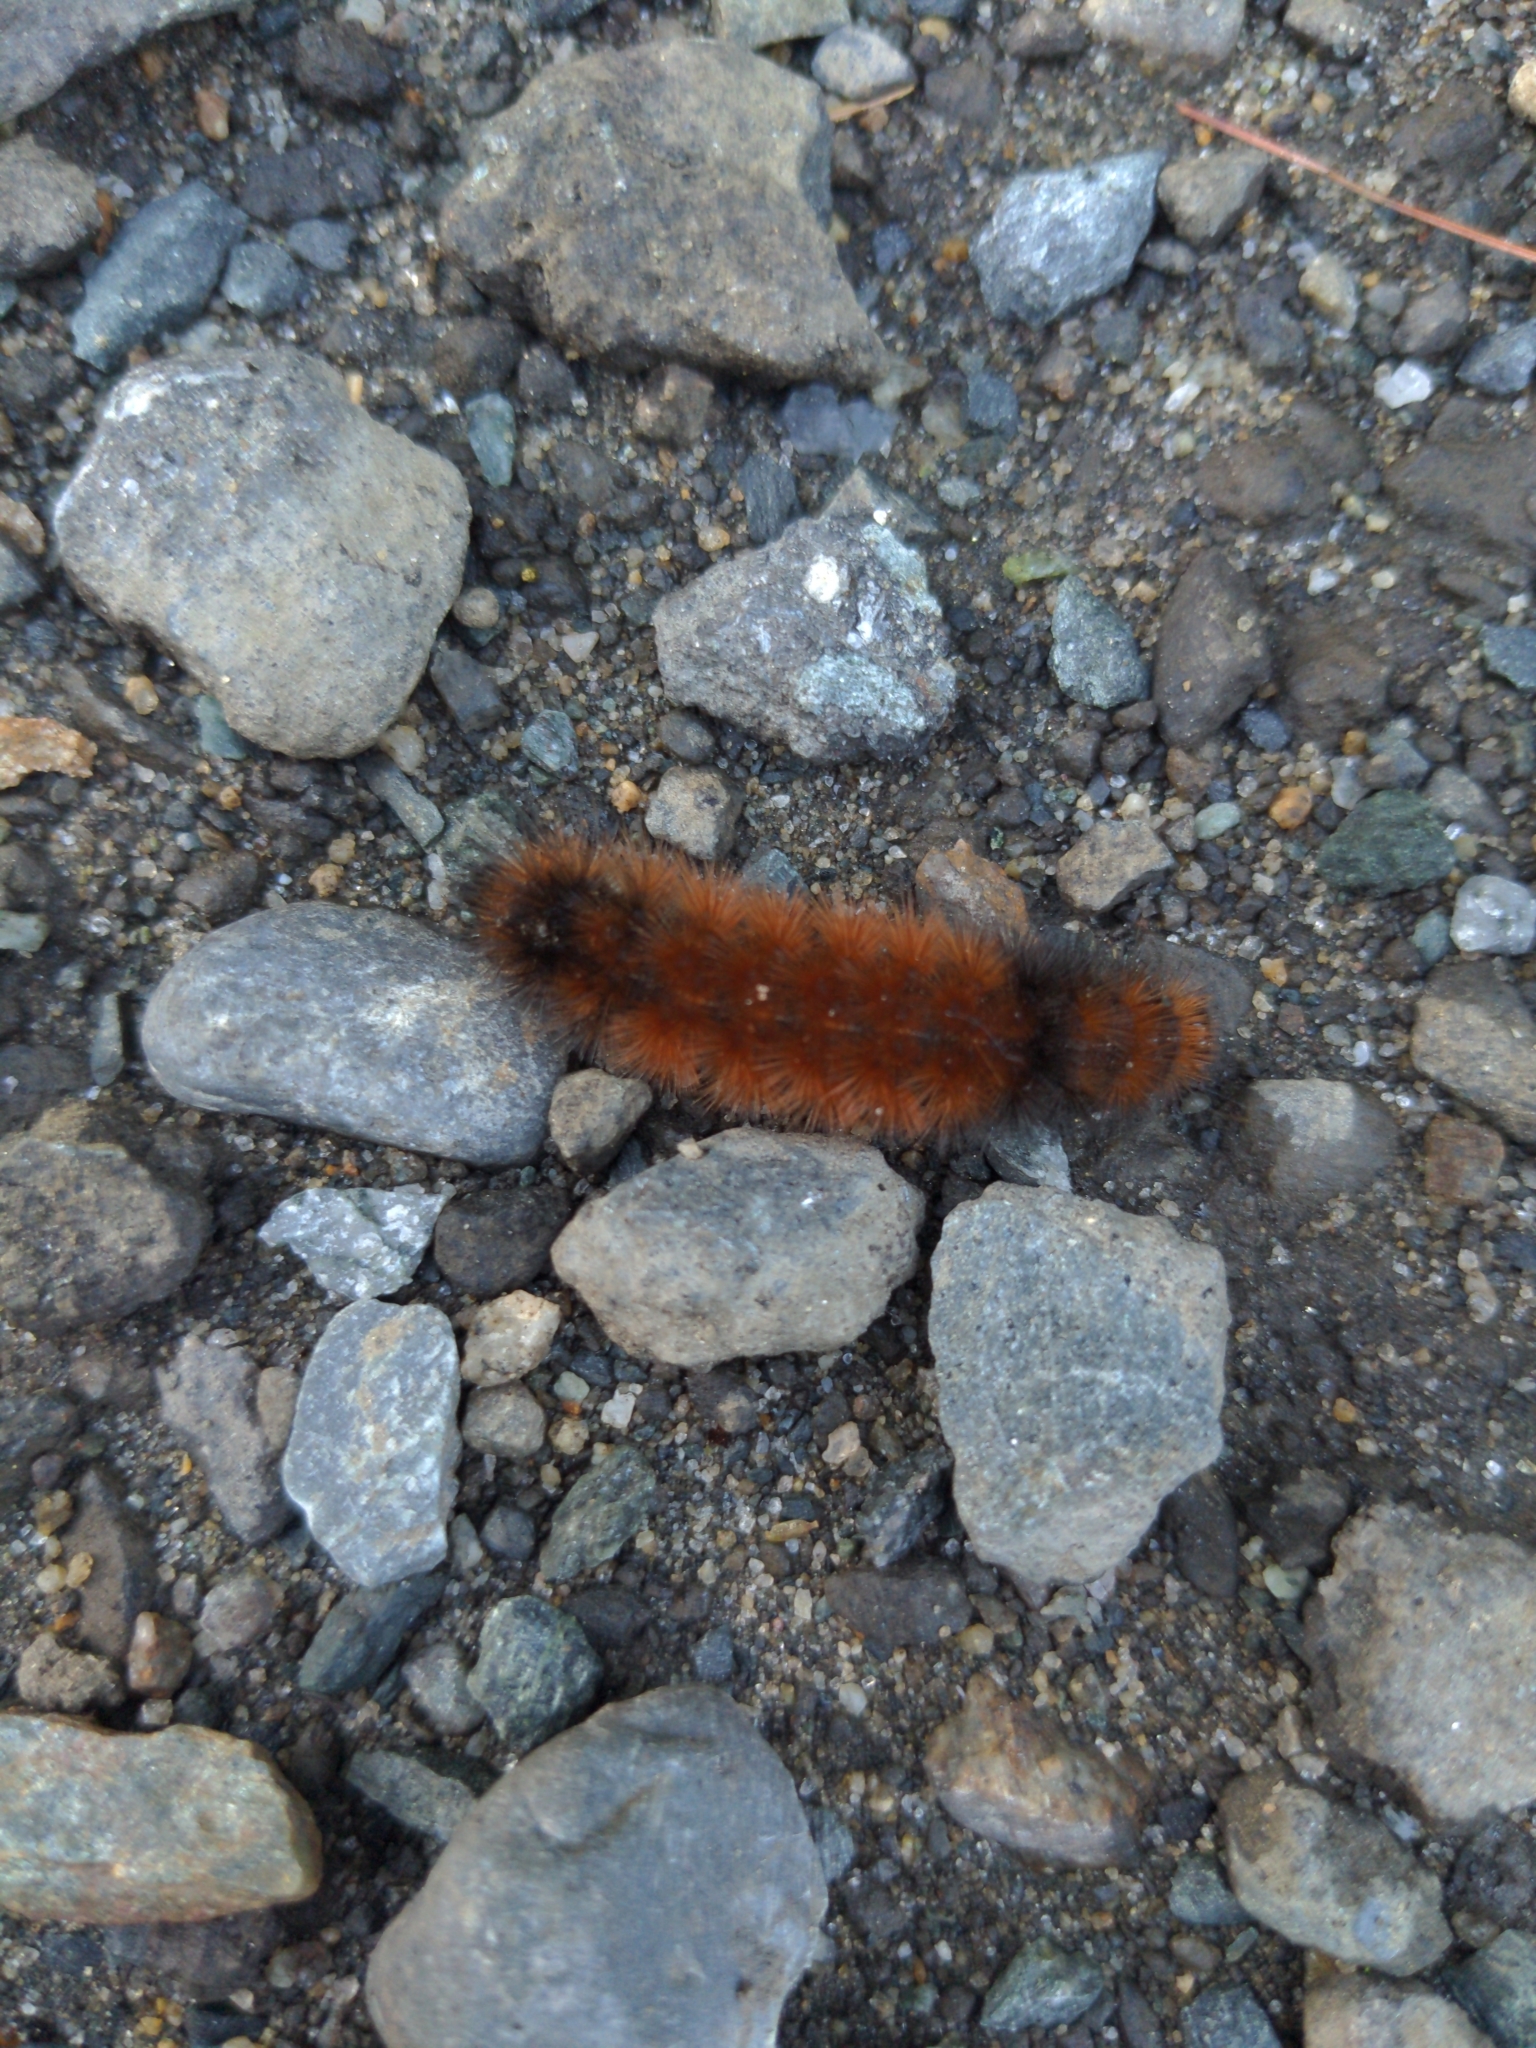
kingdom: Animalia
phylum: Arthropoda
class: Insecta
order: Lepidoptera
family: Erebidae
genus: Pyrrharctia
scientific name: Pyrrharctia isabella
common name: Isabella tiger moth
